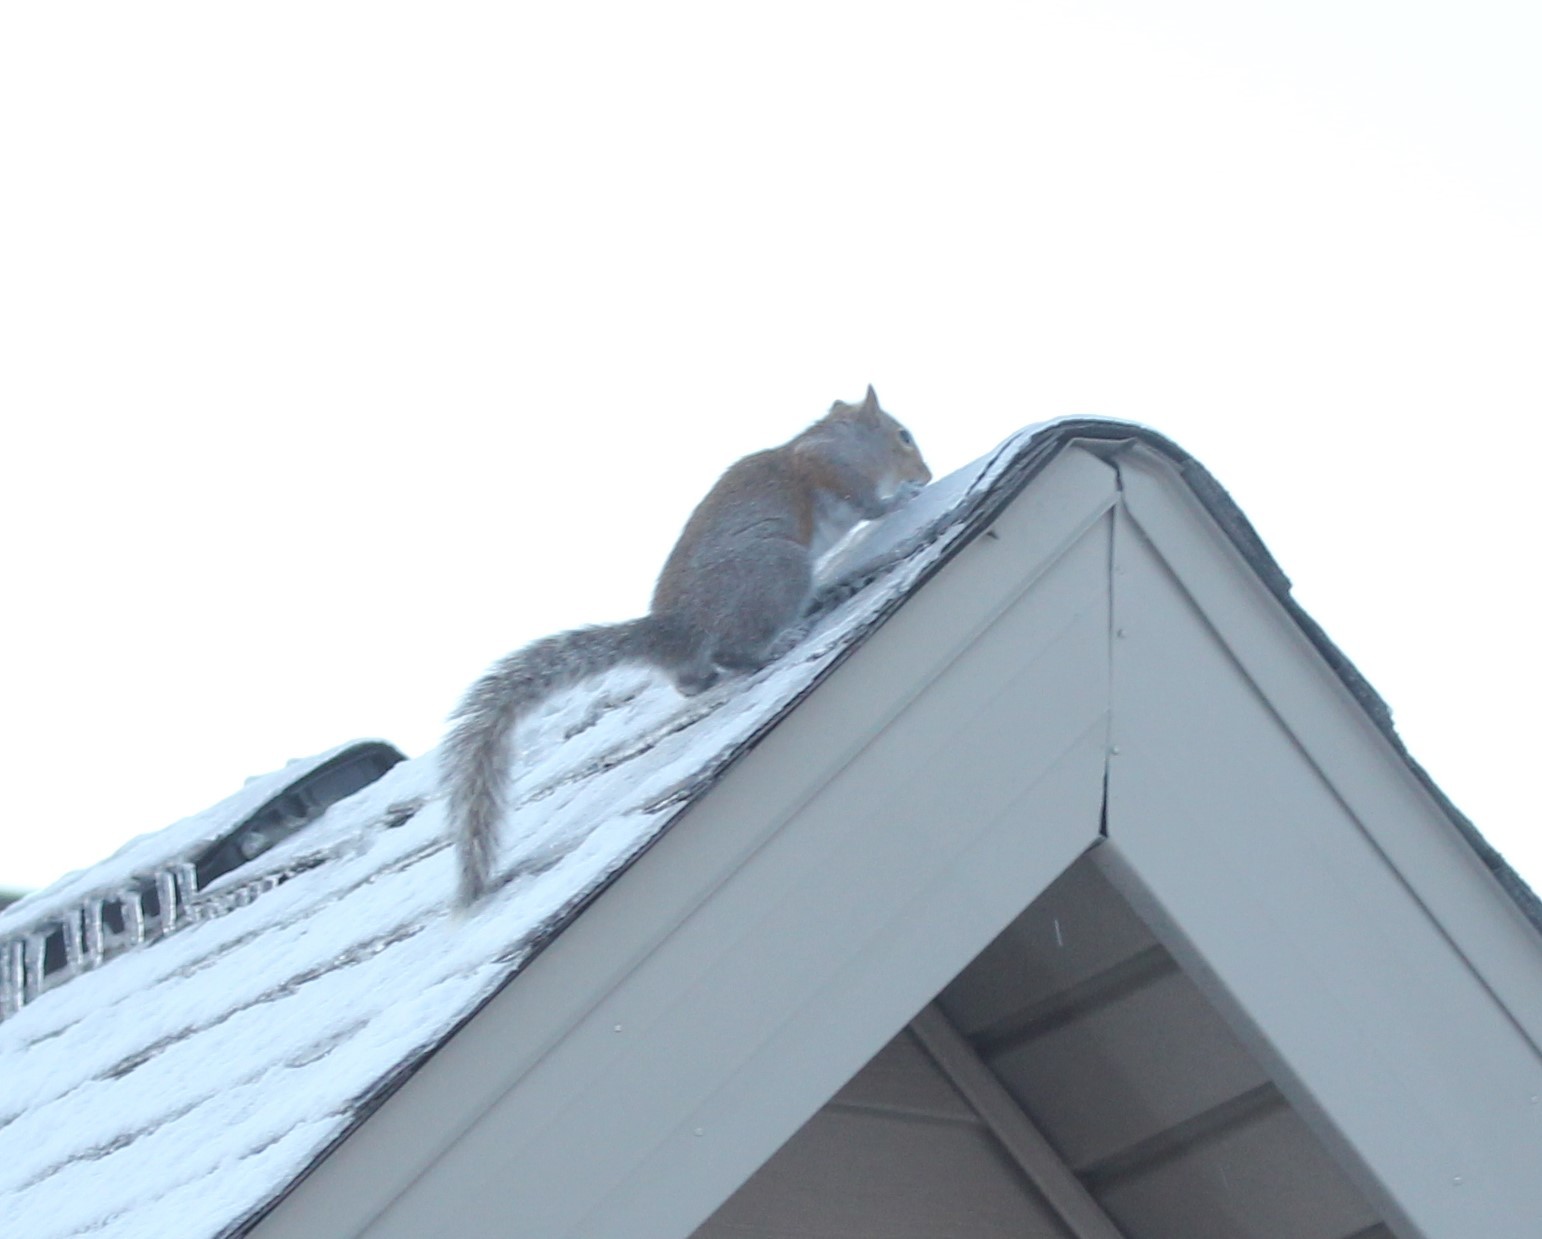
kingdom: Animalia
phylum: Chordata
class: Mammalia
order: Rodentia
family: Sciuridae
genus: Sciurus
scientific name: Sciurus carolinensis
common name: Eastern gray squirrel
